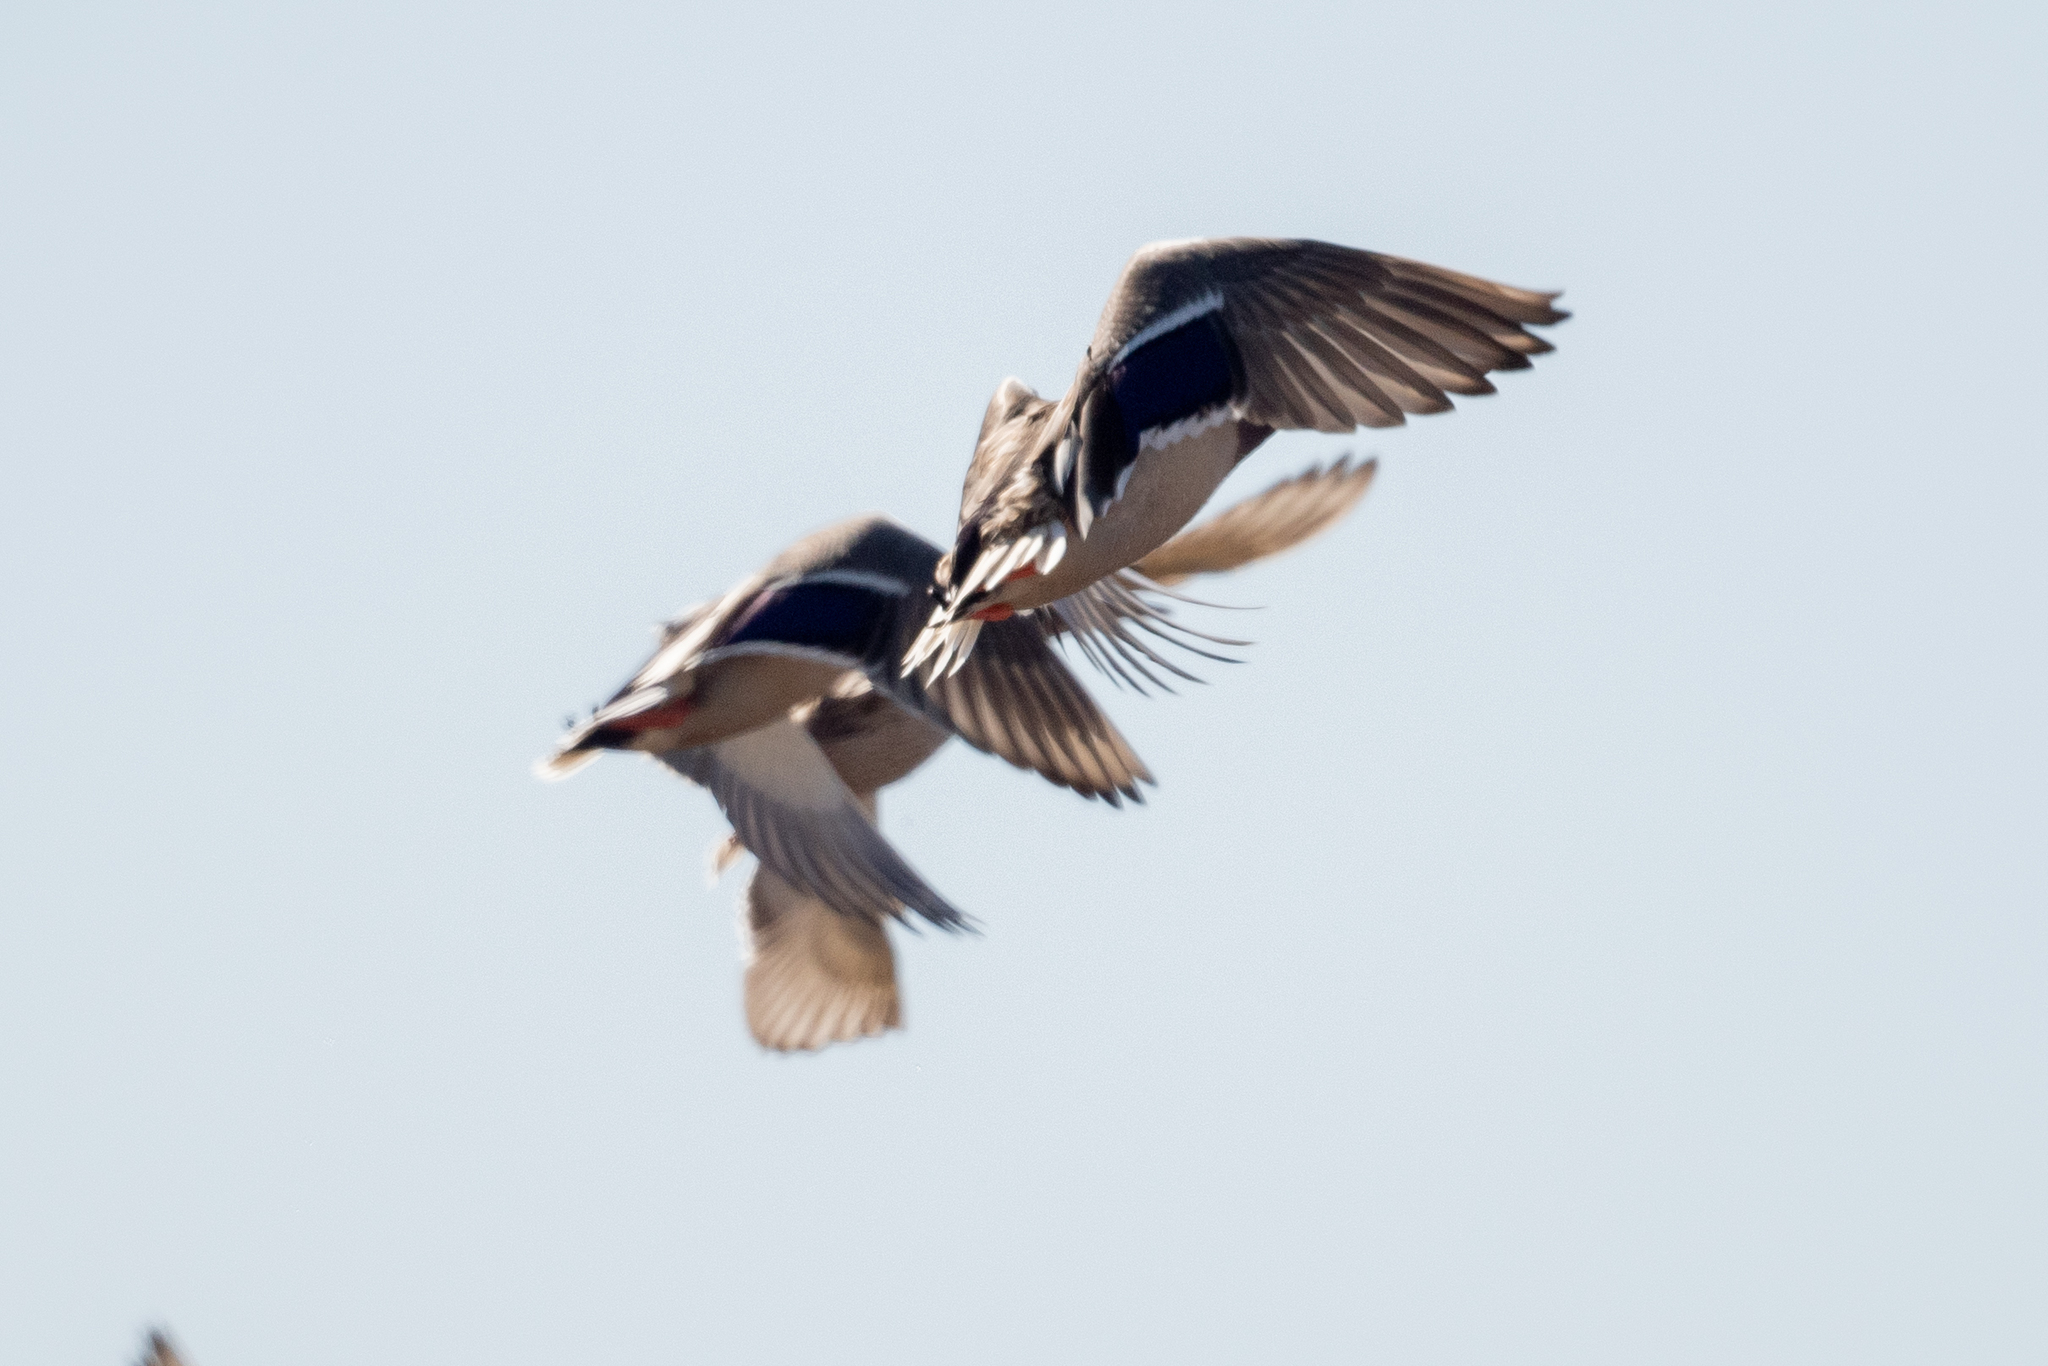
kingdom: Animalia
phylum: Chordata
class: Aves
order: Anseriformes
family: Anatidae
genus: Anas
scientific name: Anas platyrhynchos
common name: Mallard
